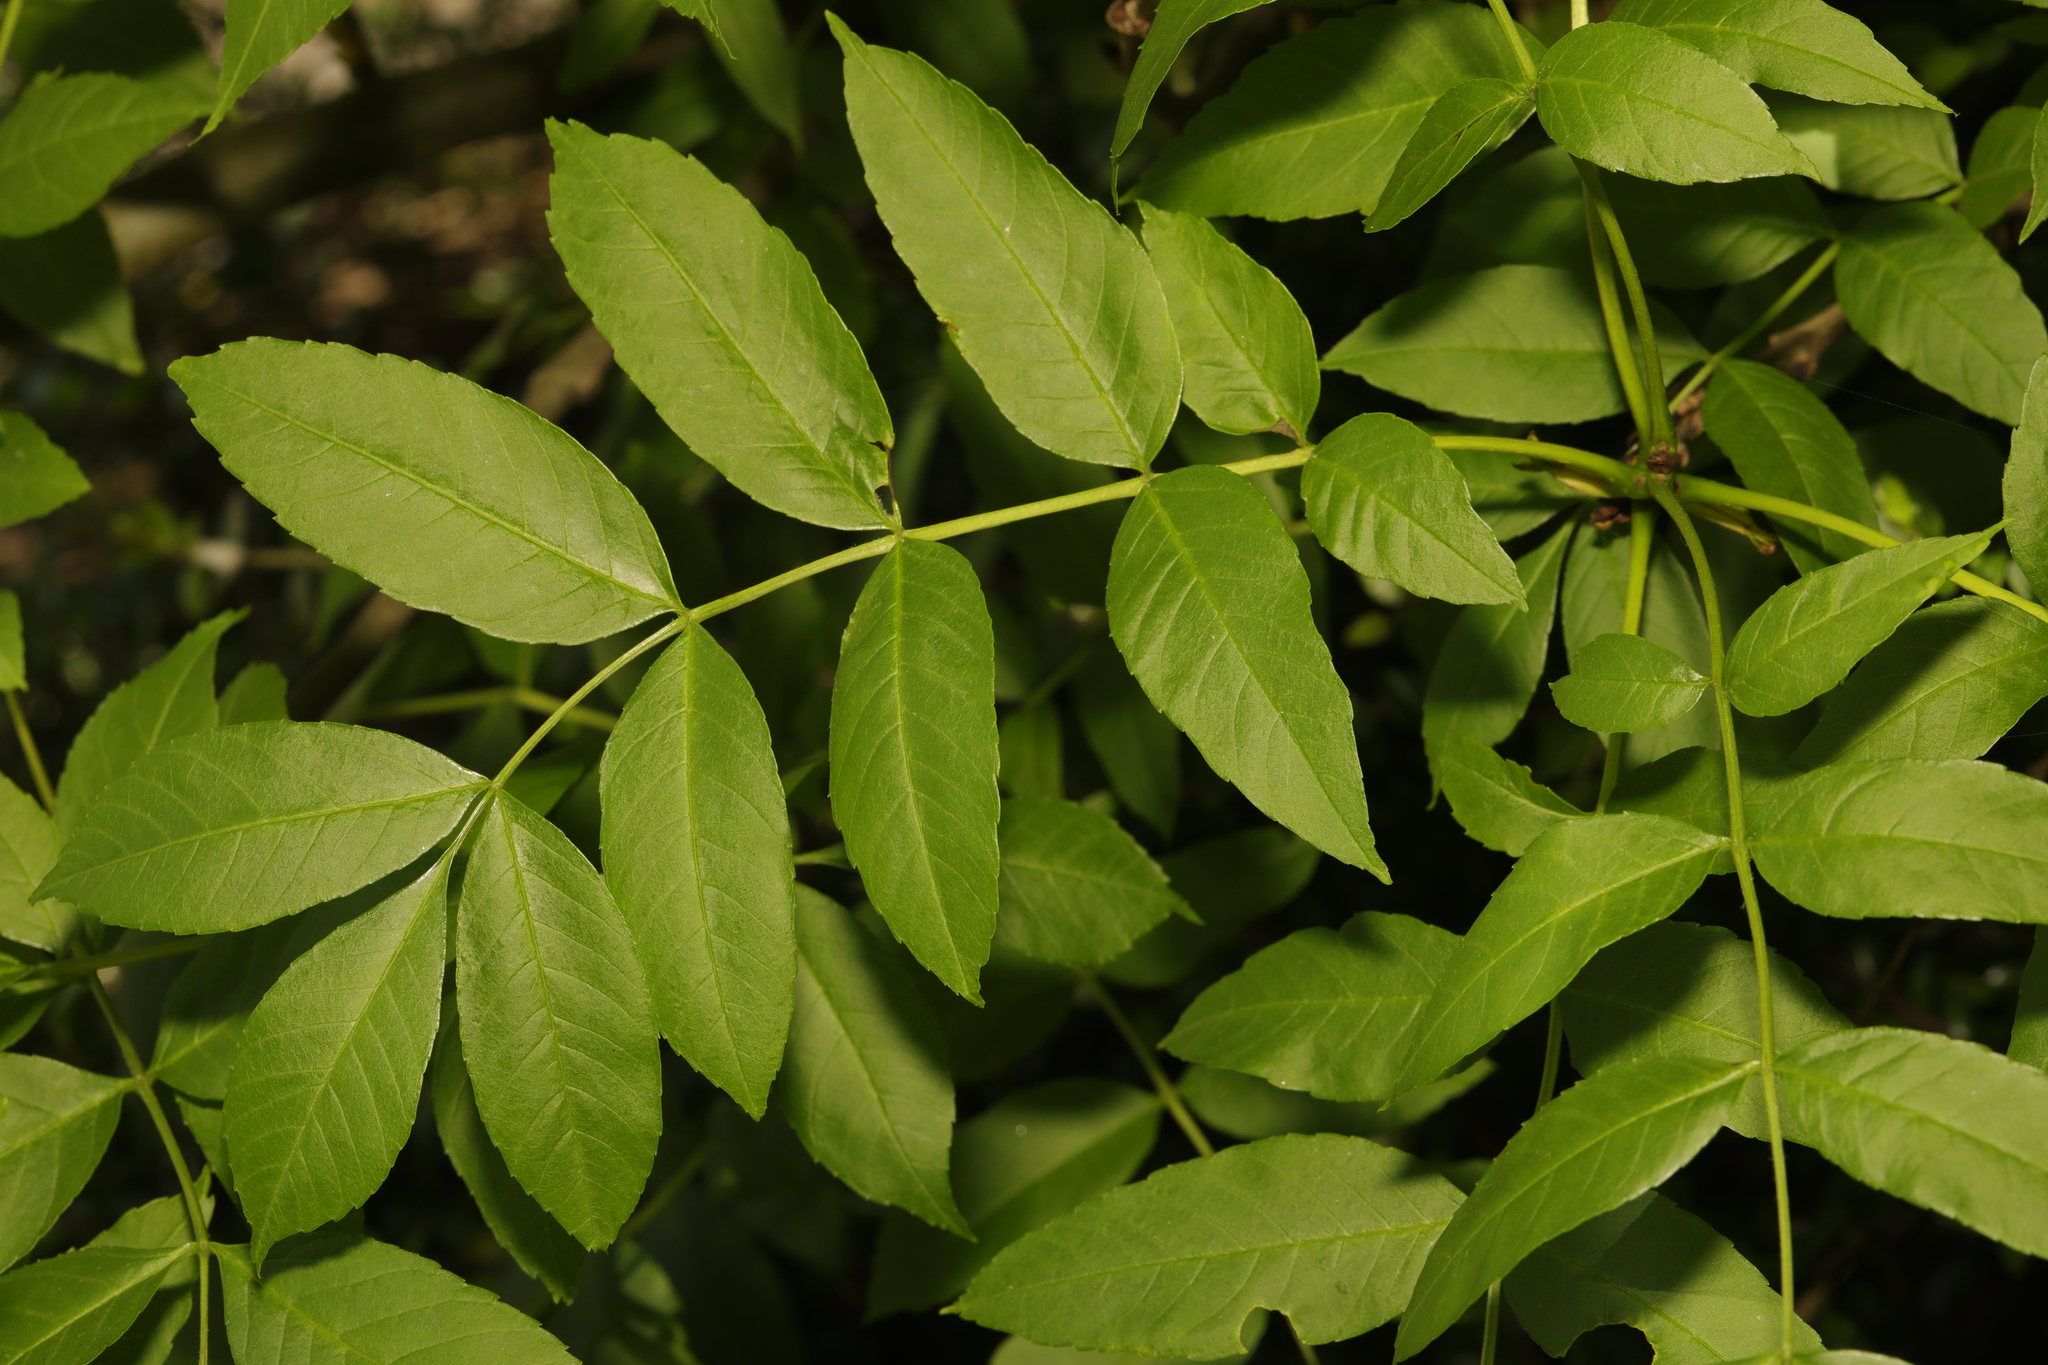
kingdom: Plantae
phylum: Tracheophyta
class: Magnoliopsida
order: Lamiales
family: Oleaceae
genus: Fraxinus
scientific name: Fraxinus excelsior
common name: European ash
